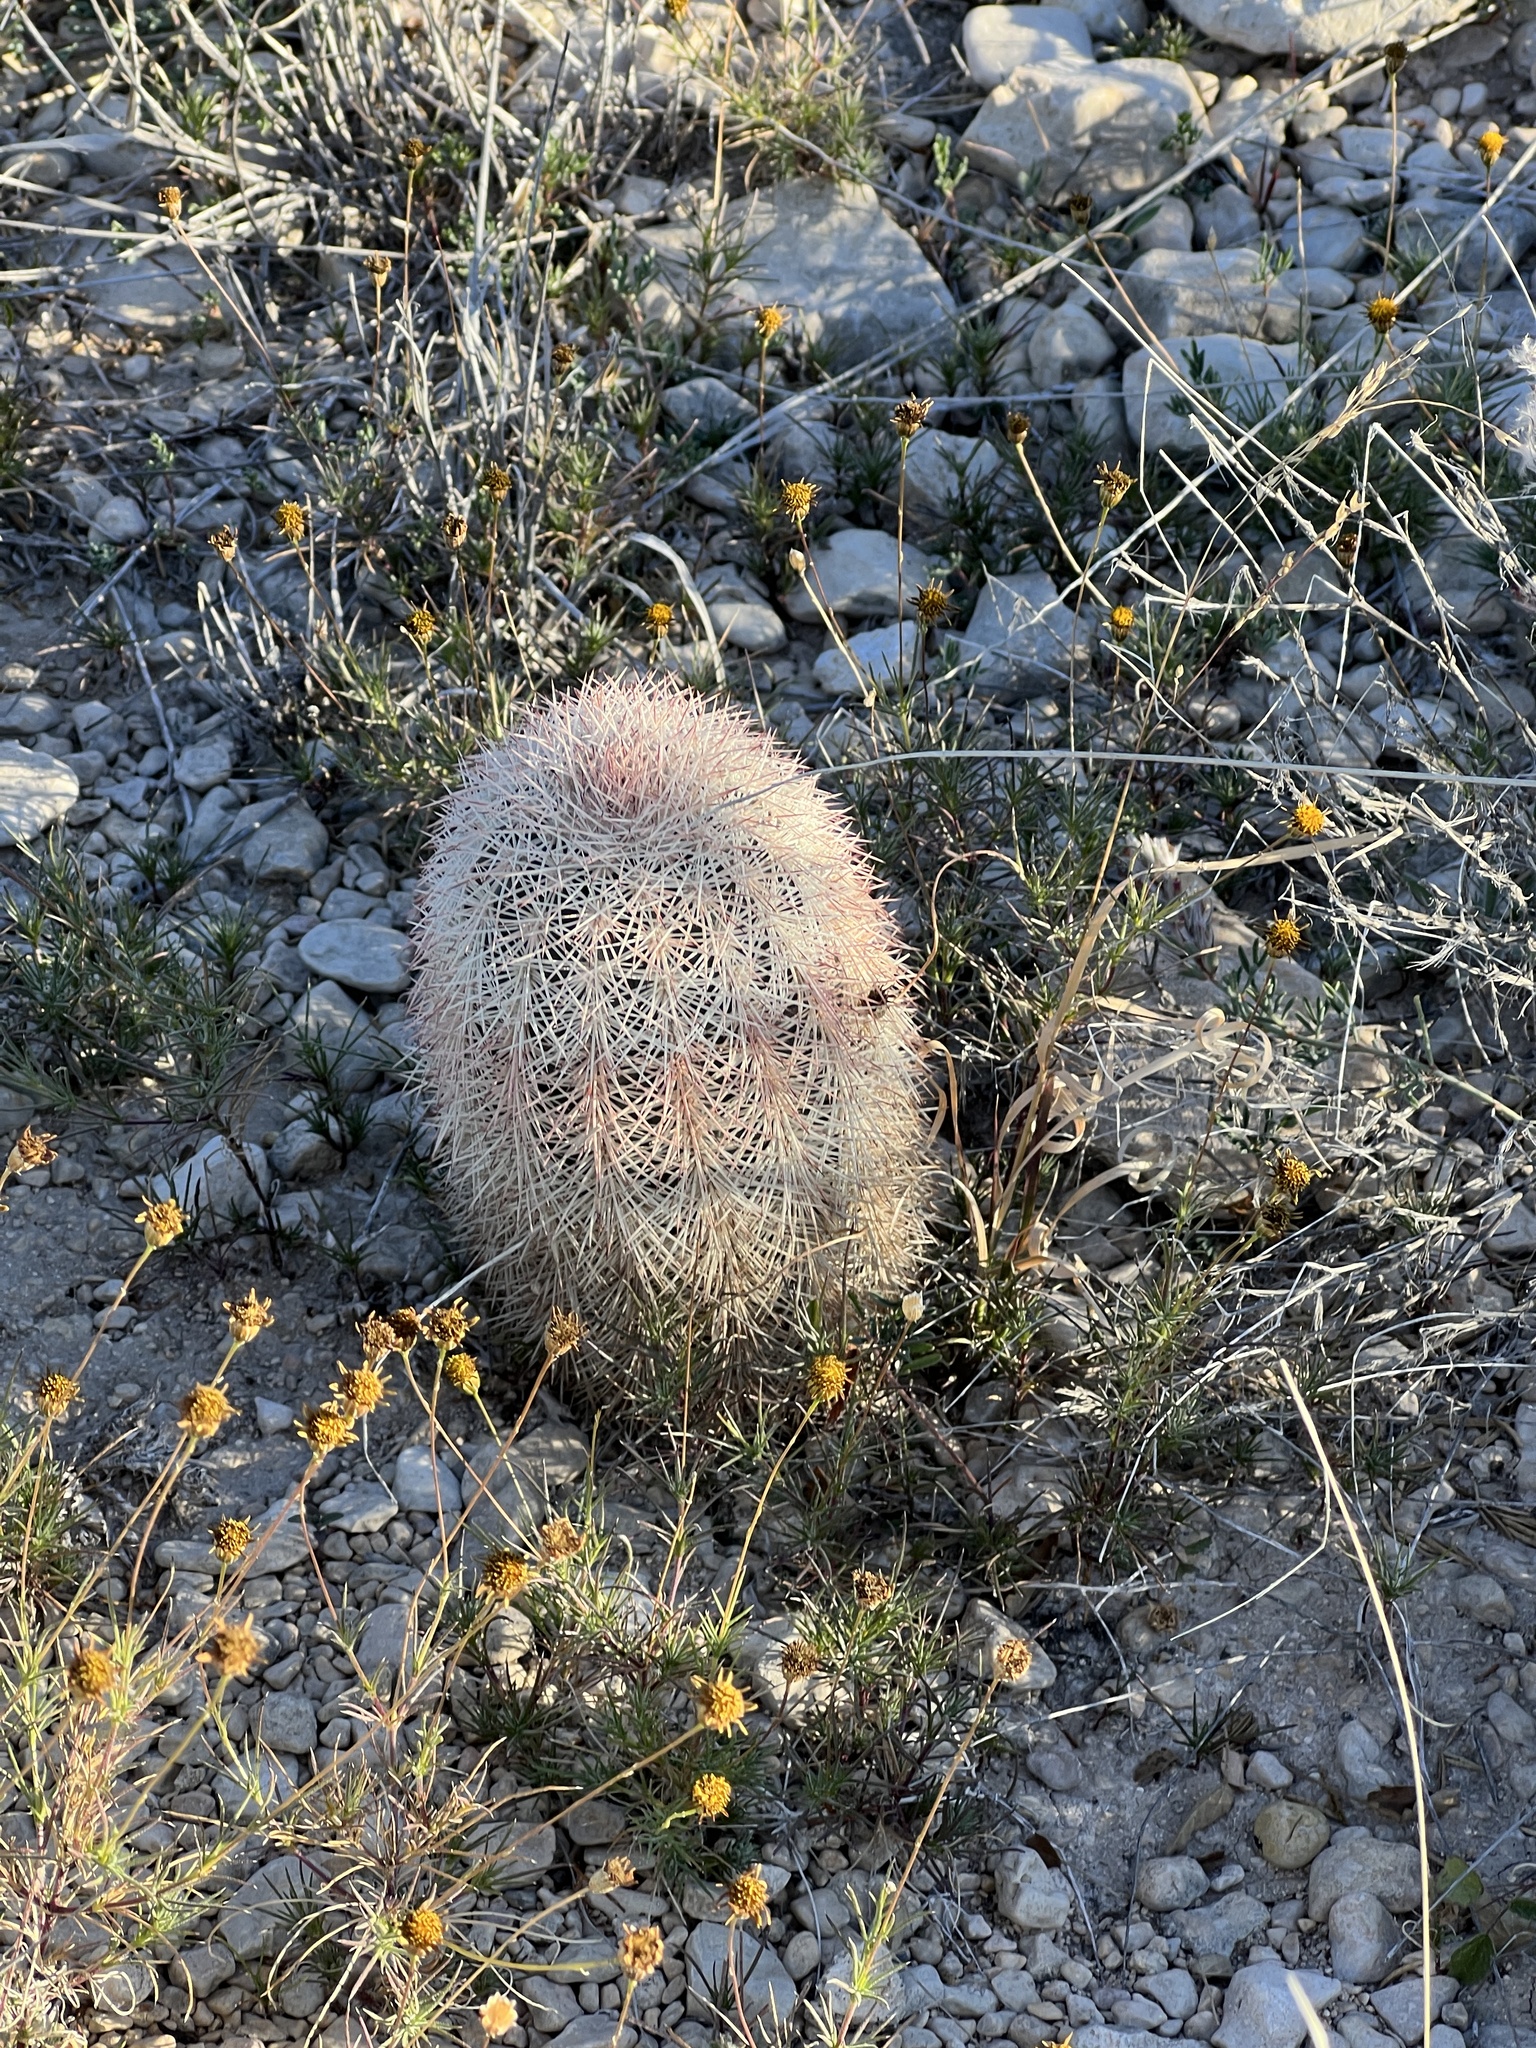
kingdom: Plantae
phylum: Tracheophyta
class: Magnoliopsida
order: Caryophyllales
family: Cactaceae
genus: Echinocereus
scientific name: Echinocereus dasyacanthus
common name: Spiny hedgehog cactus
